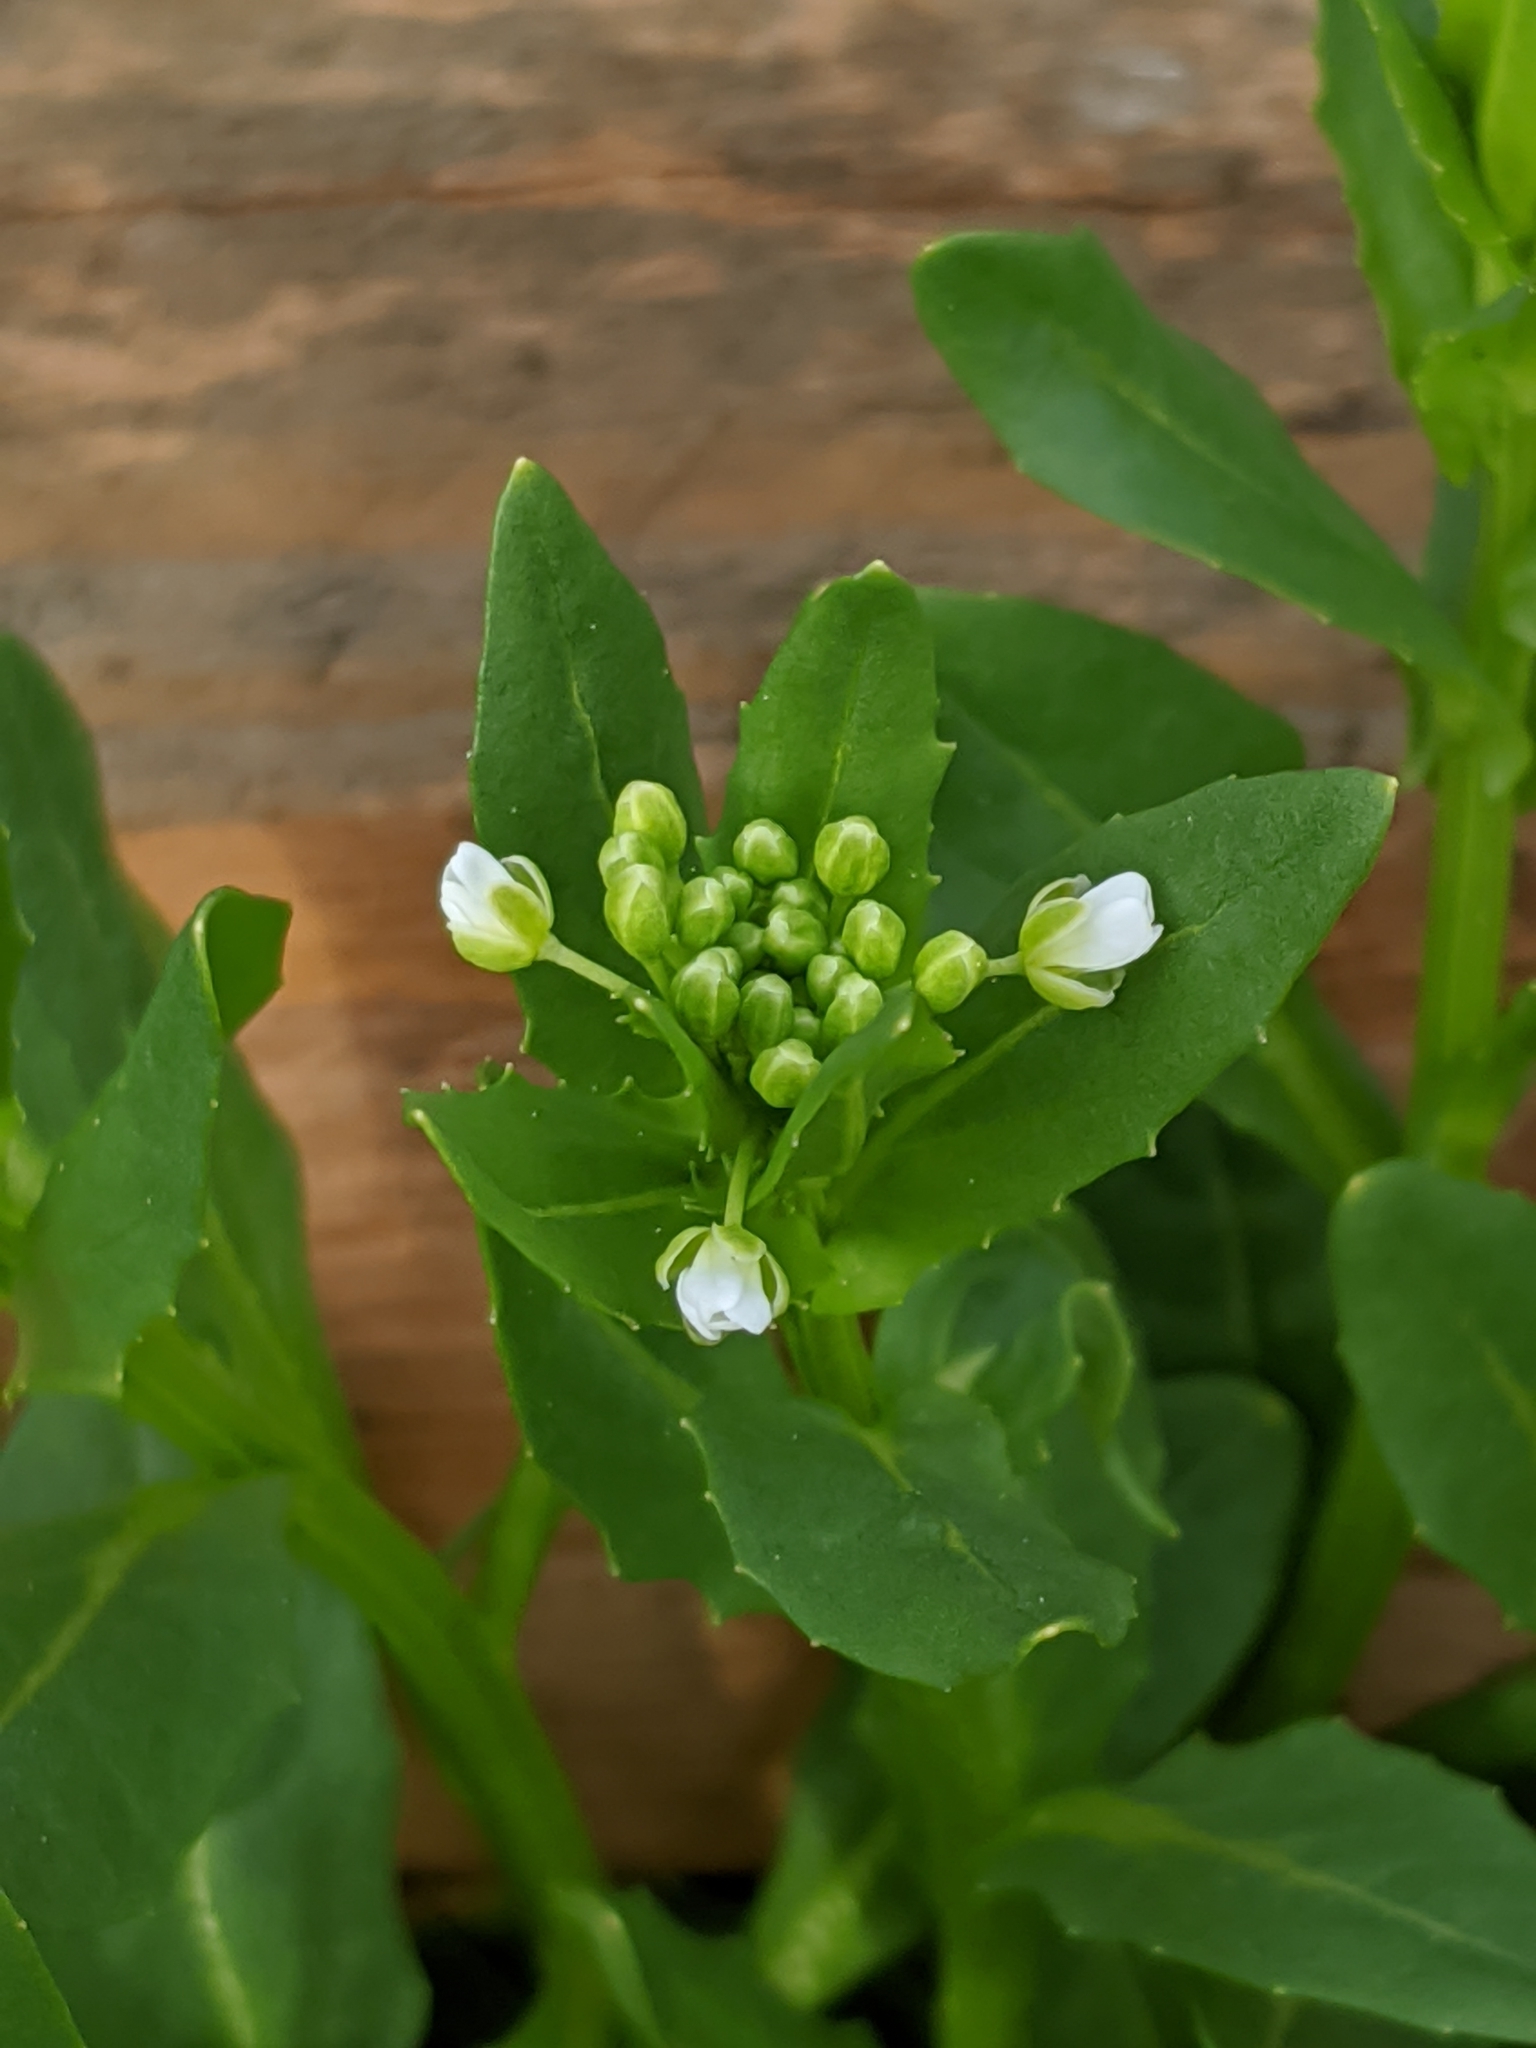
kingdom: Plantae
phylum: Tracheophyta
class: Magnoliopsida
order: Brassicales
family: Brassicaceae
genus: Thlaspi
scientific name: Thlaspi arvense
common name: Field pennycress
